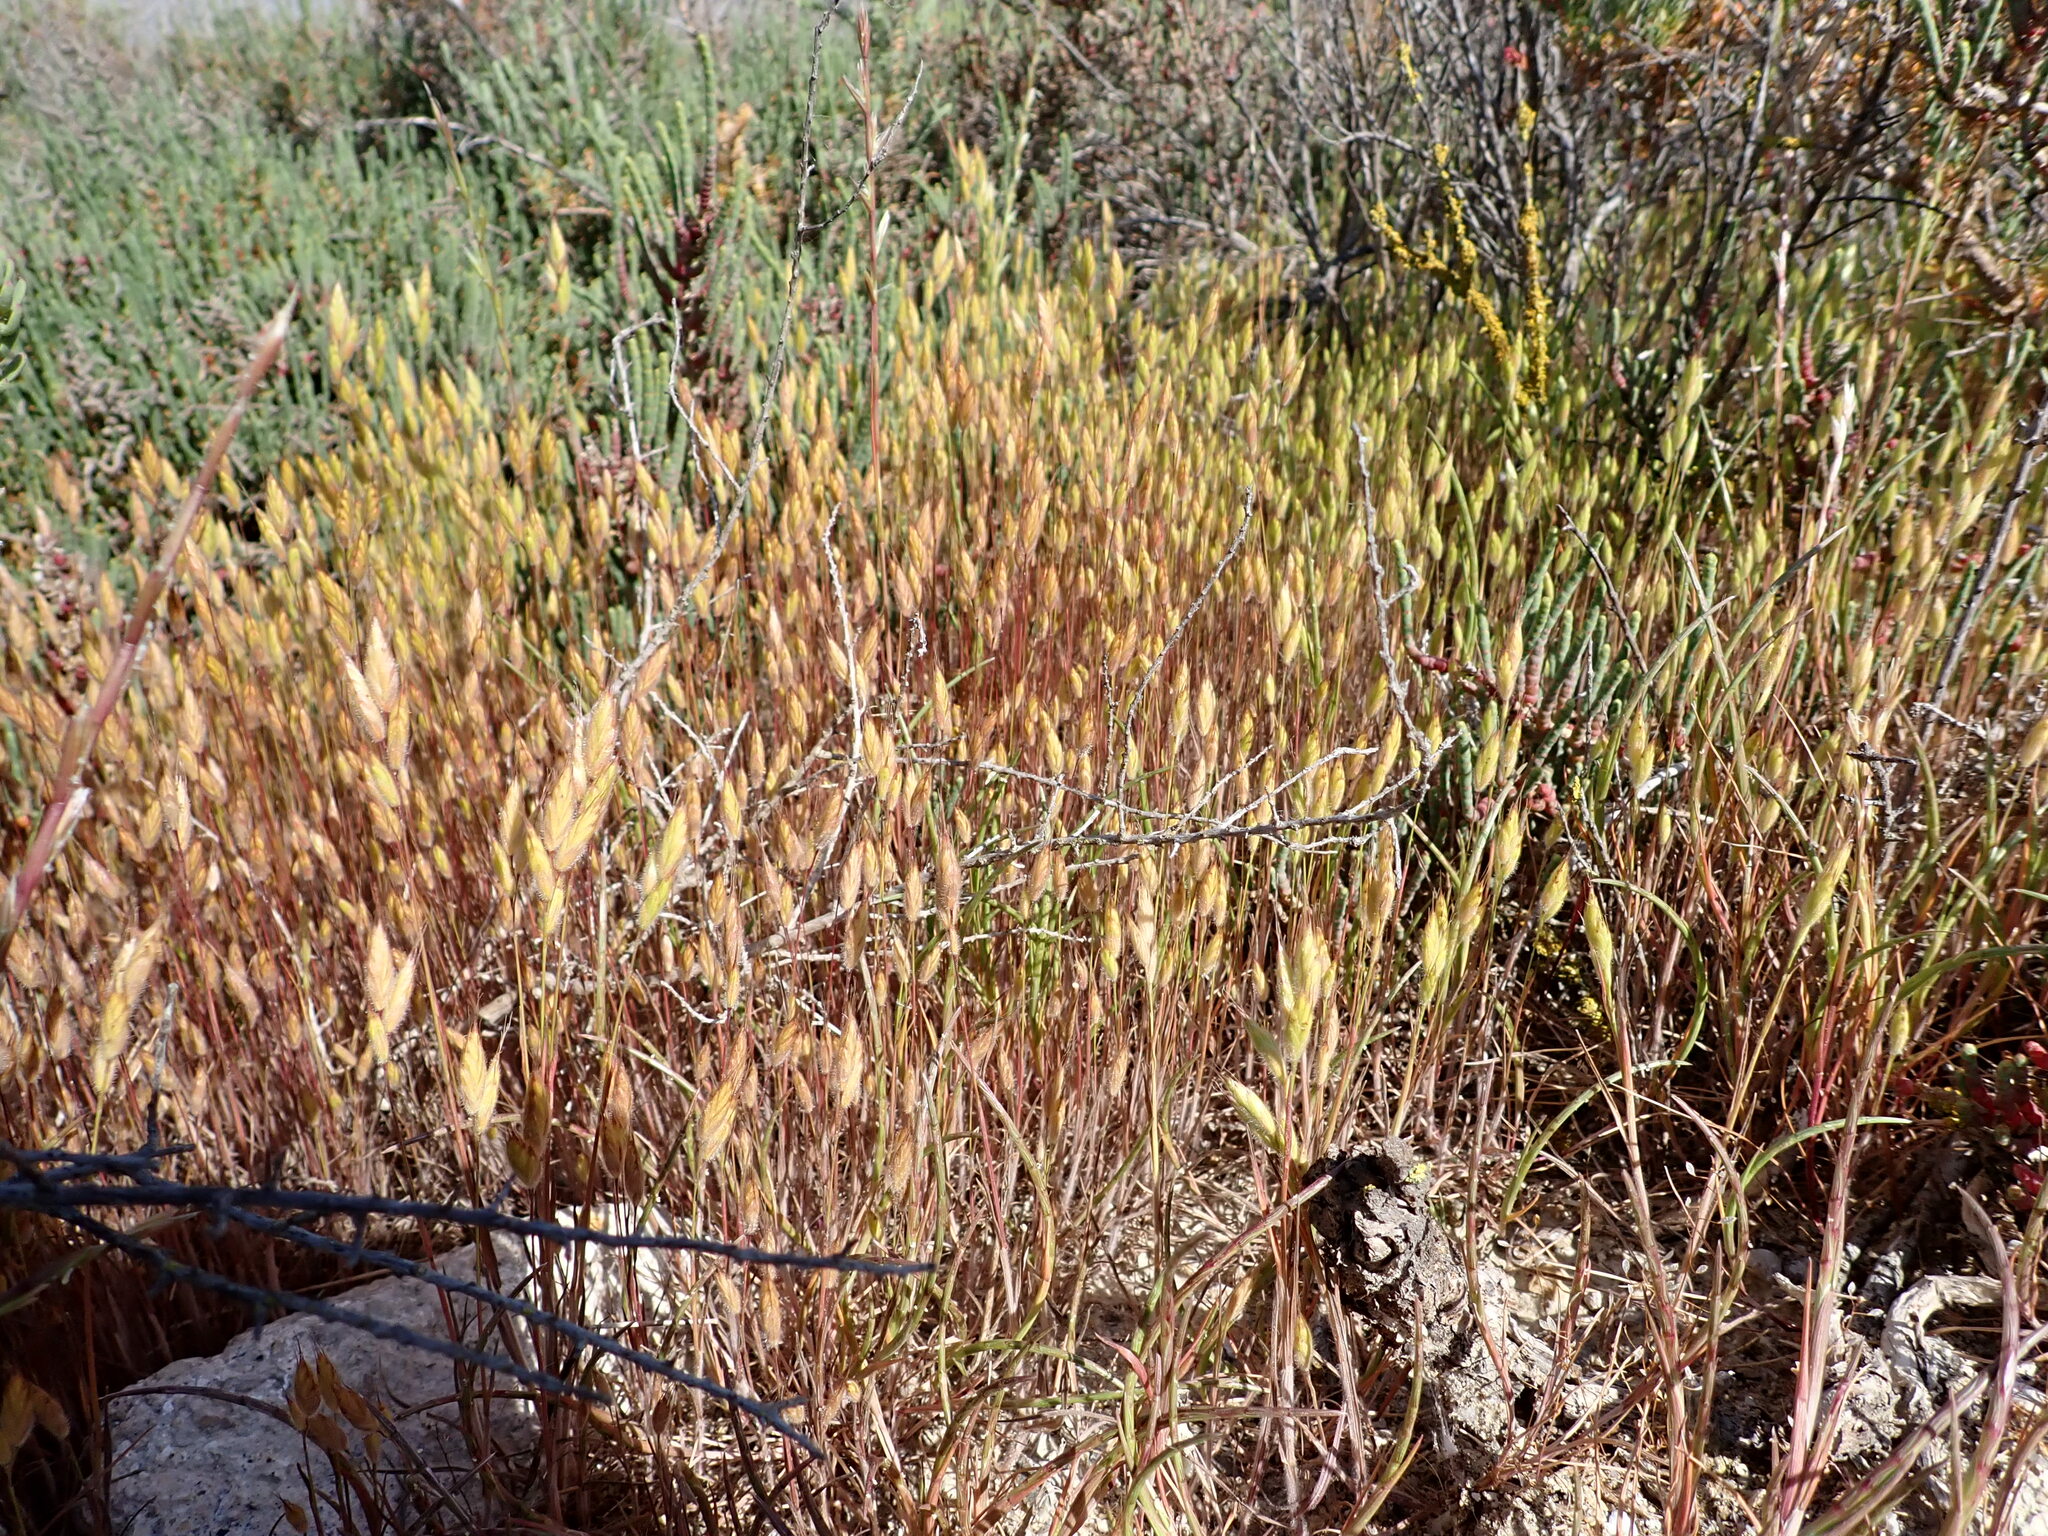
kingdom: Plantae
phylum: Tracheophyta
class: Liliopsida
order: Poales
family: Poaceae
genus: Bromus
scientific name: Bromus hordeaceus
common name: Soft brome
